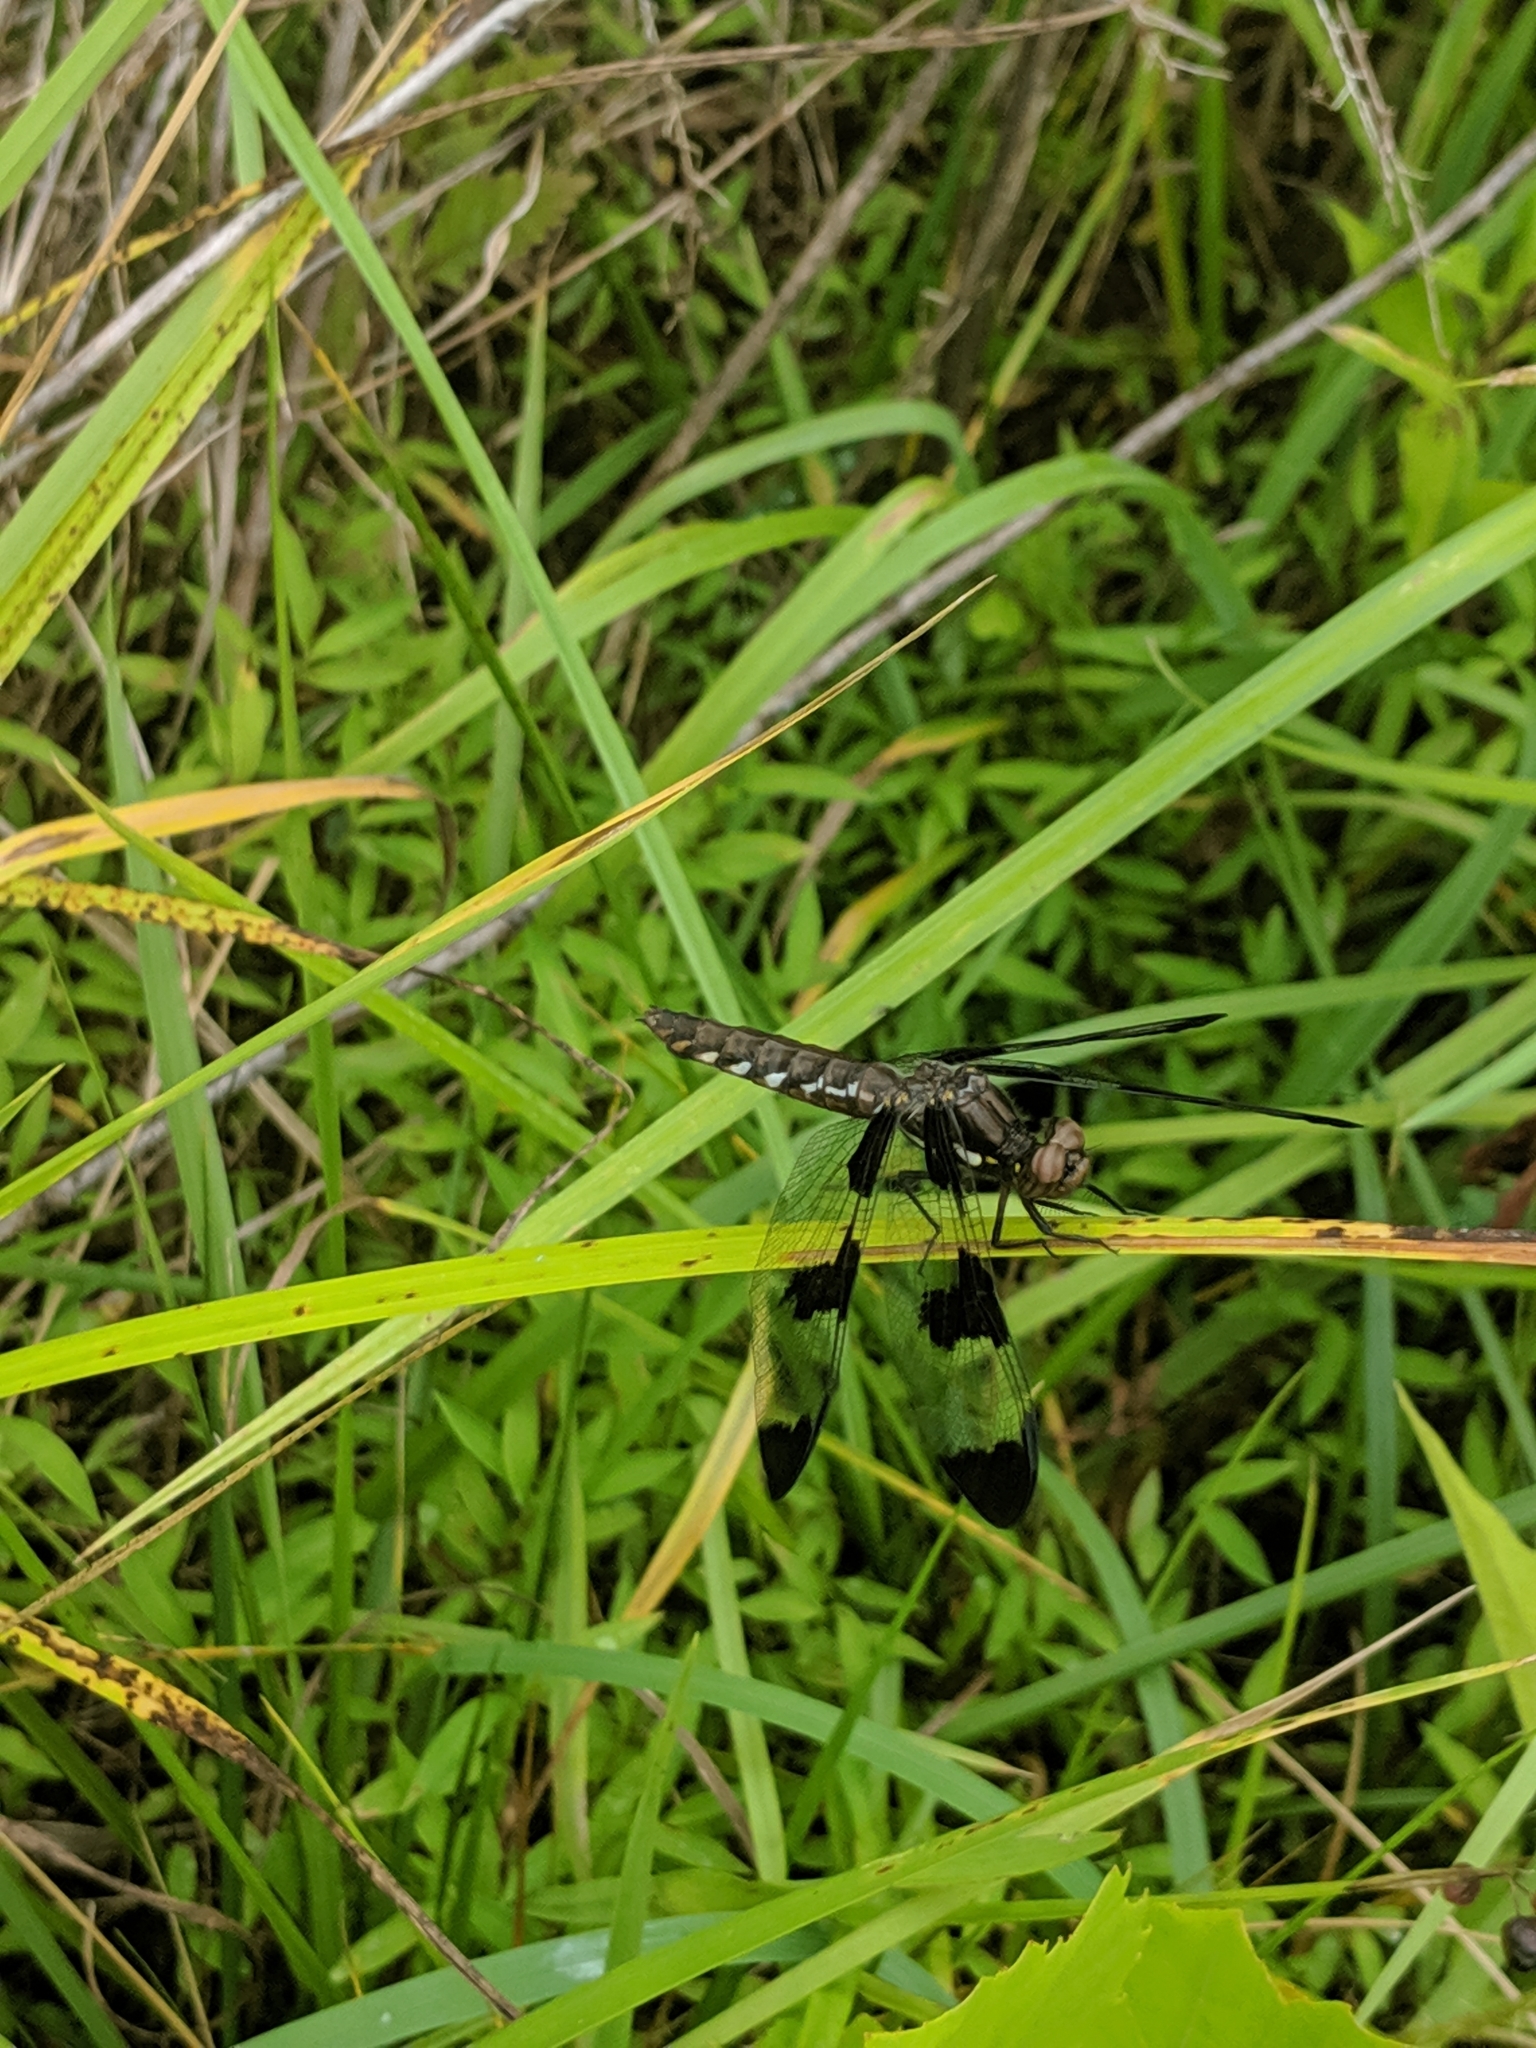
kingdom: Animalia
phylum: Arthropoda
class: Insecta
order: Odonata
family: Libellulidae
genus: Plathemis
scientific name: Plathemis lydia
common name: Common whitetail
